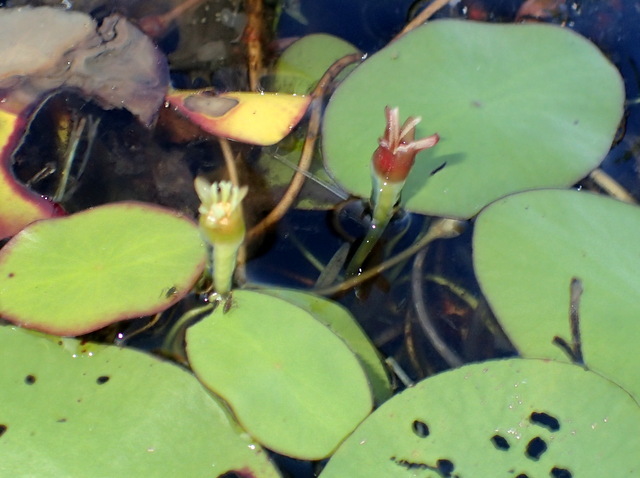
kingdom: Plantae
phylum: Tracheophyta
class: Magnoliopsida
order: Nymphaeales
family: Cabombaceae
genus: Brasenia
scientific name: Brasenia schreberi
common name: Water-shield
